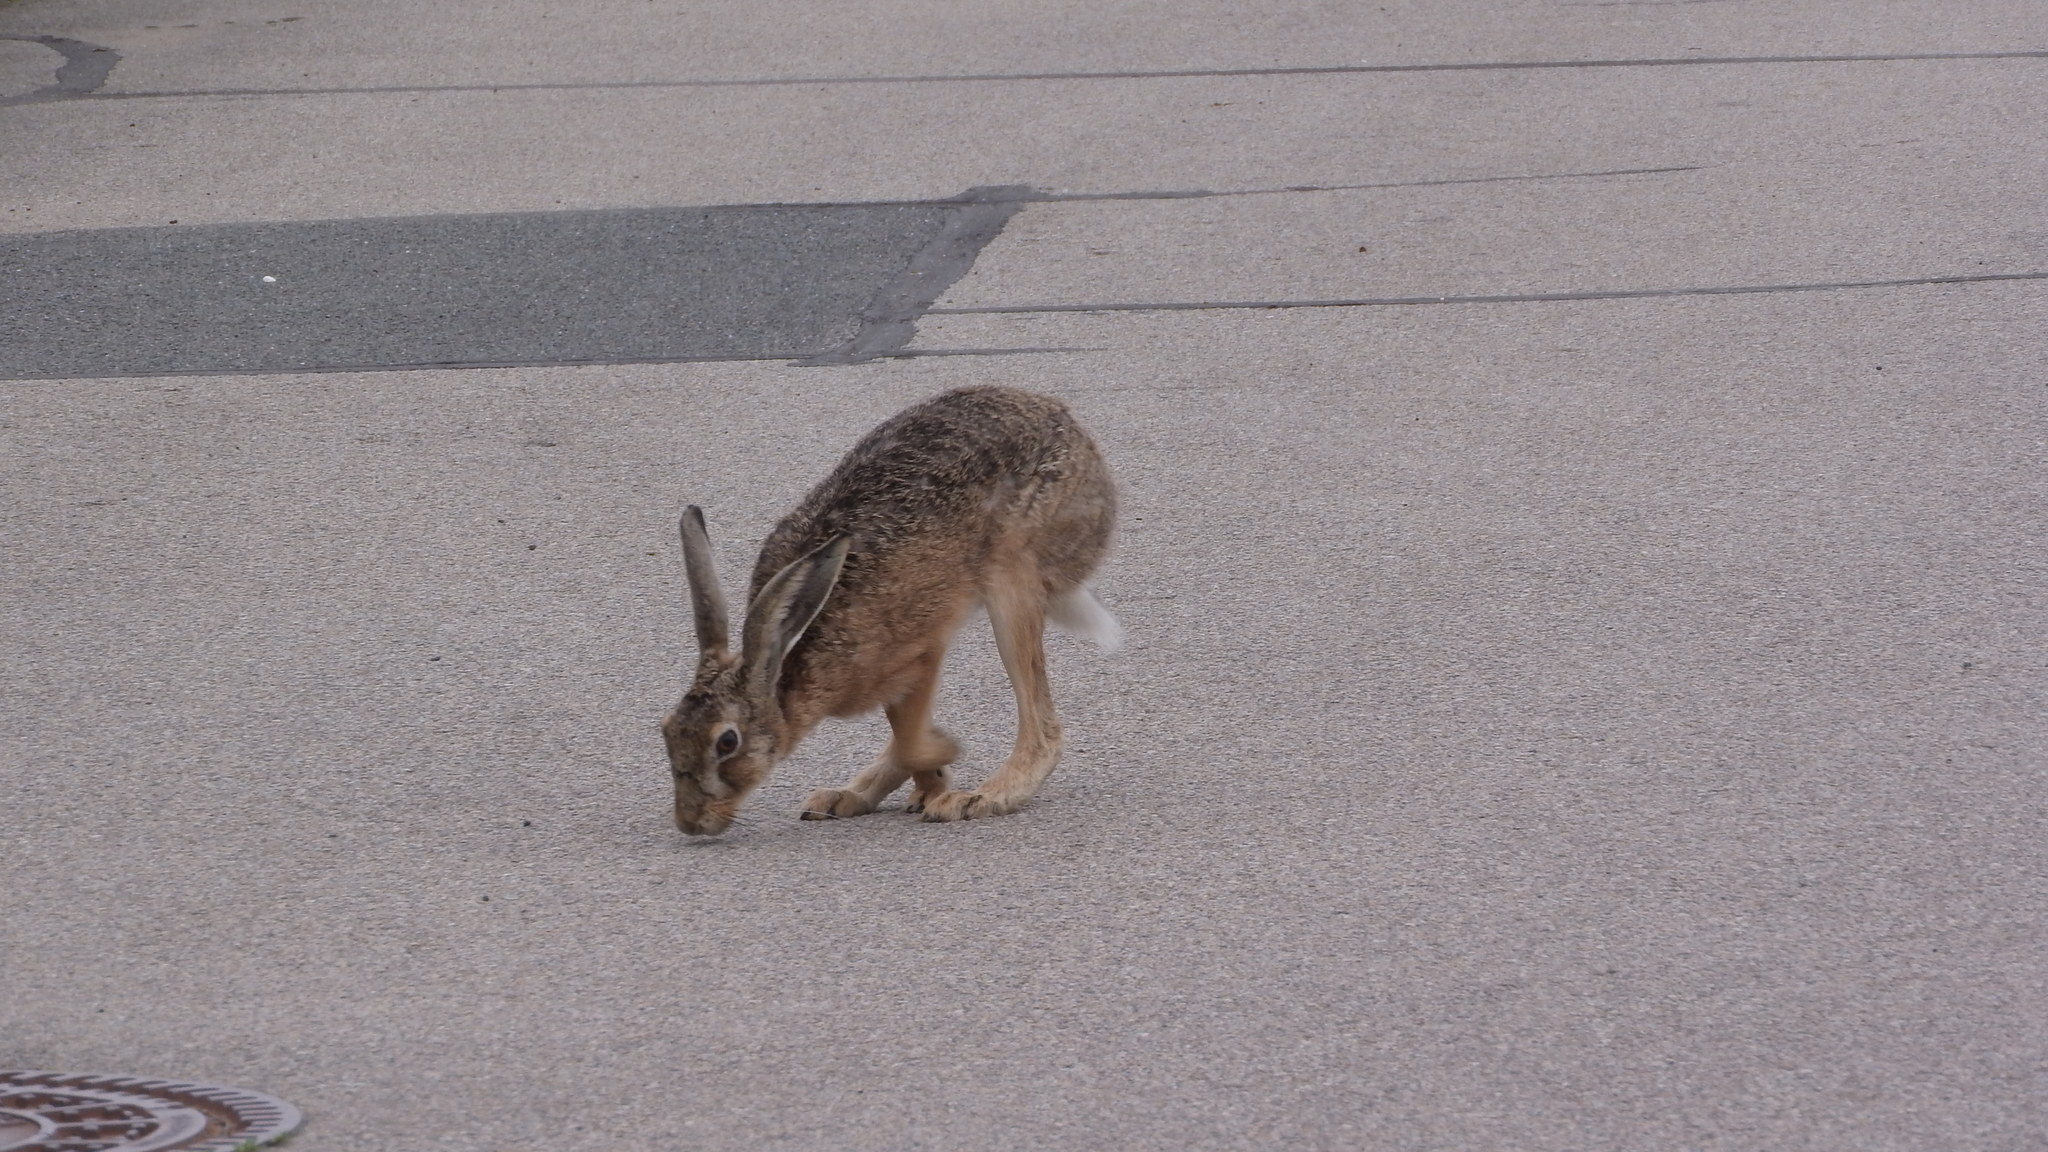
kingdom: Animalia
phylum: Chordata
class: Mammalia
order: Lagomorpha
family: Leporidae
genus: Lepus
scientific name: Lepus europaeus
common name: European hare
